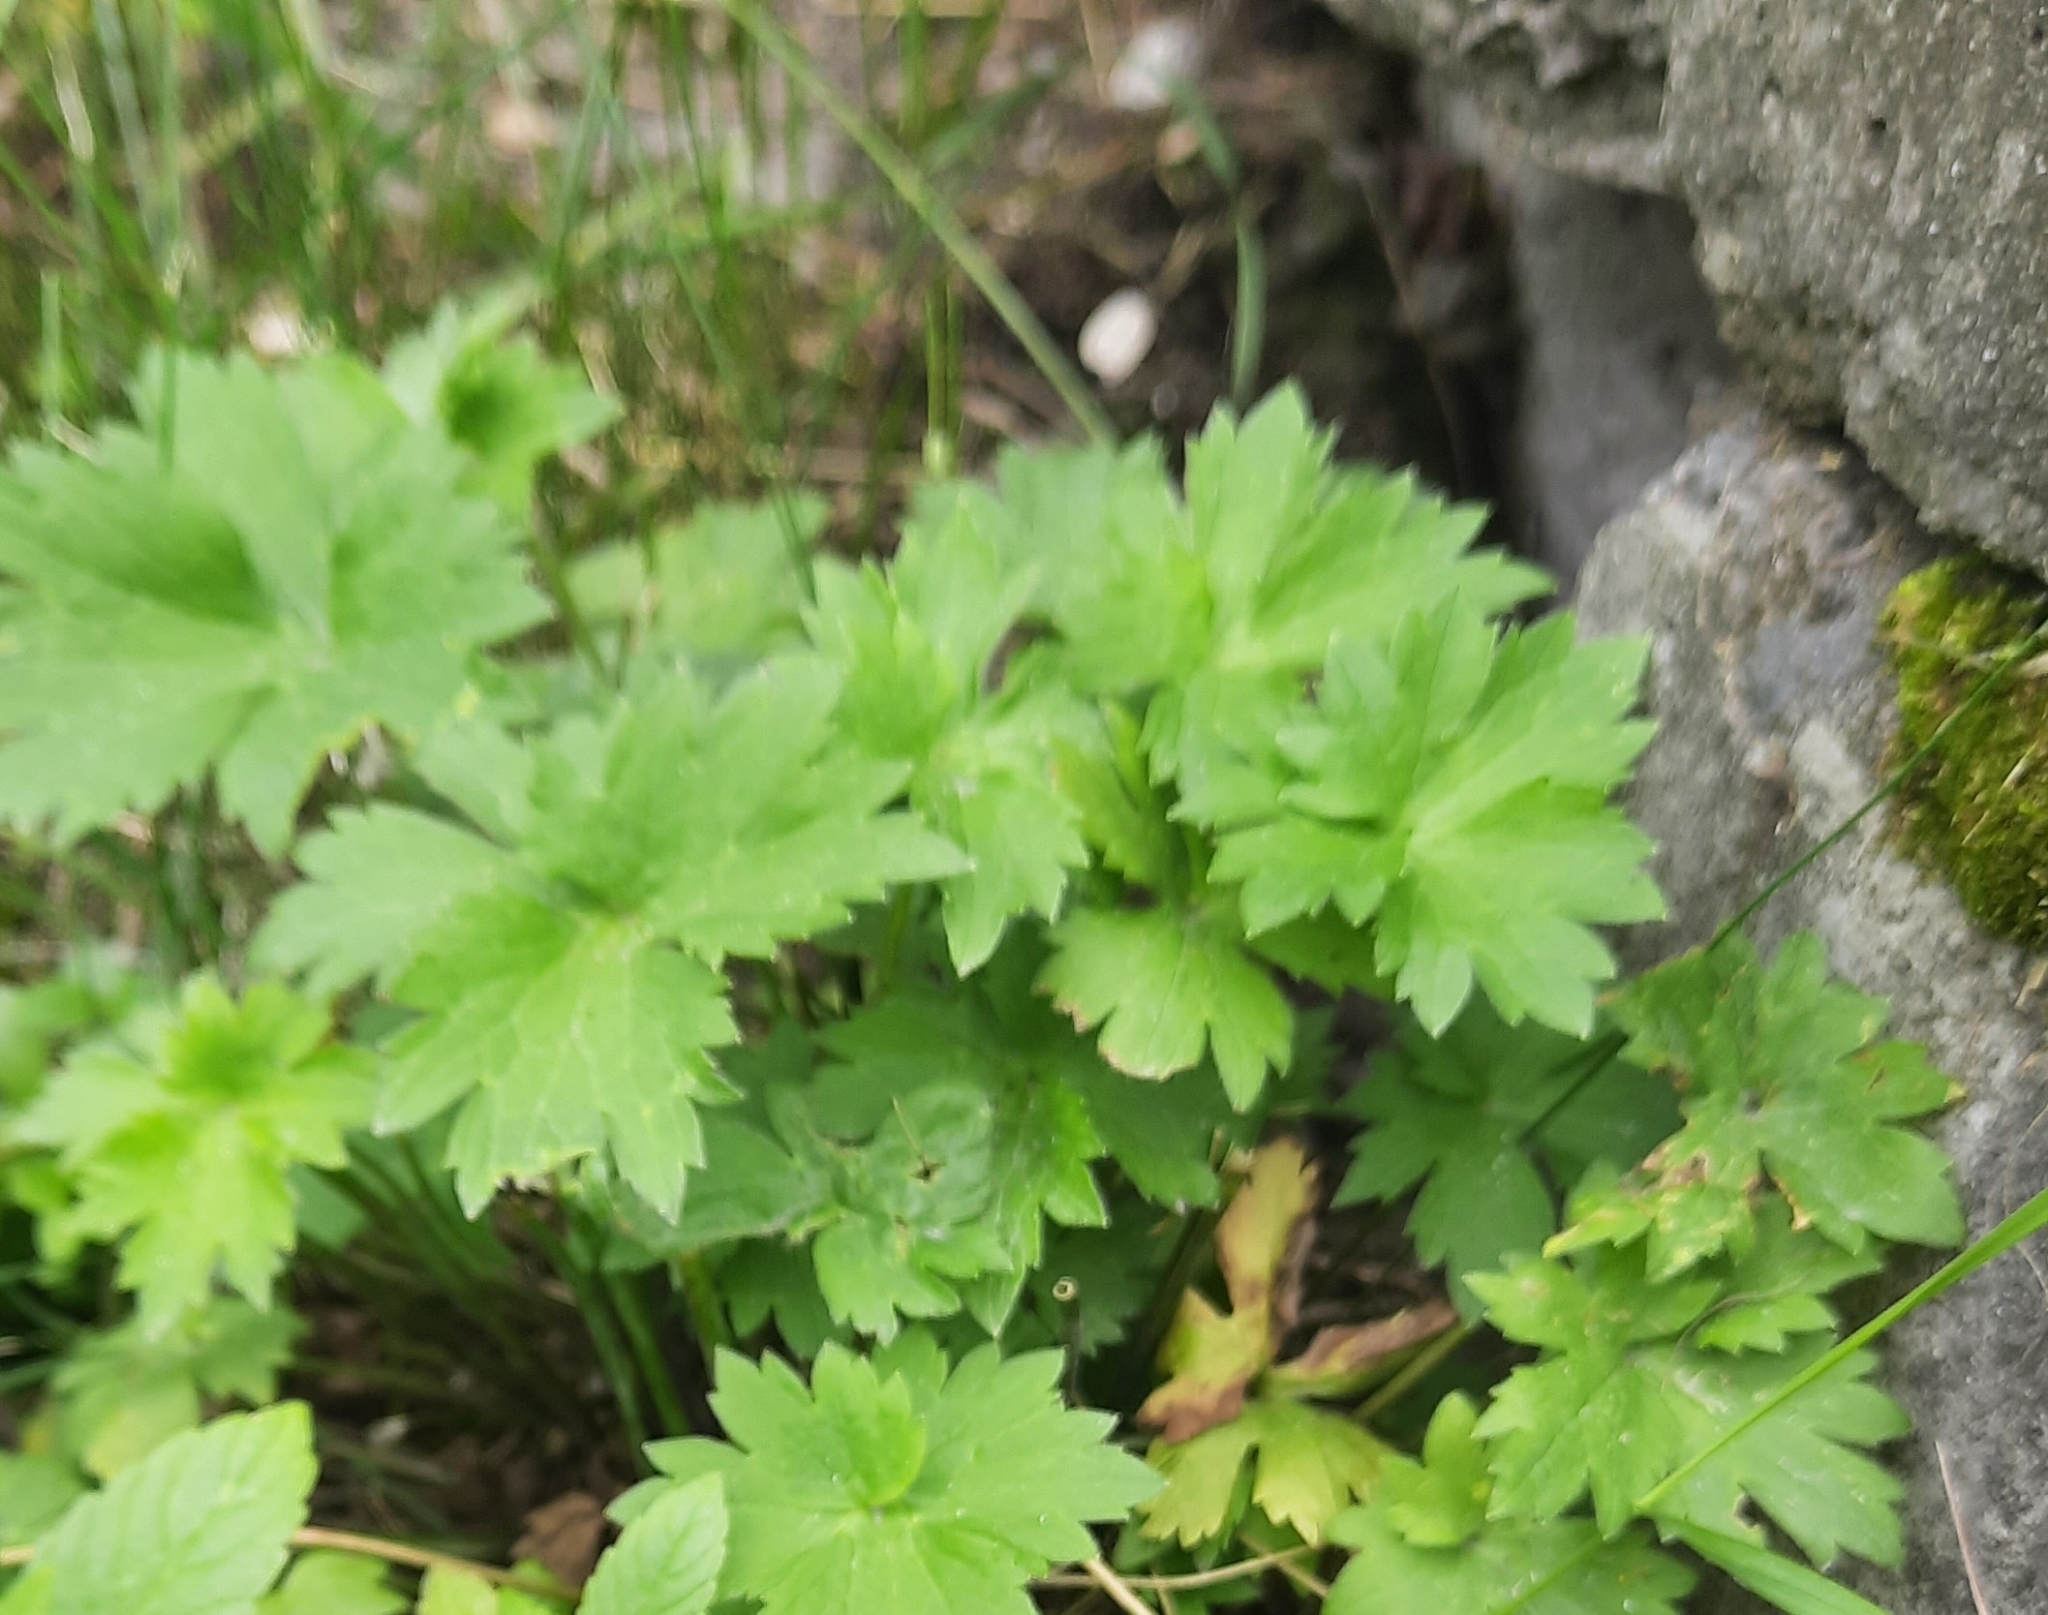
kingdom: Plantae
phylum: Tracheophyta
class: Magnoliopsida
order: Ranunculales
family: Ranunculaceae
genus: Ranunculus
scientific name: Ranunculus propinquus
